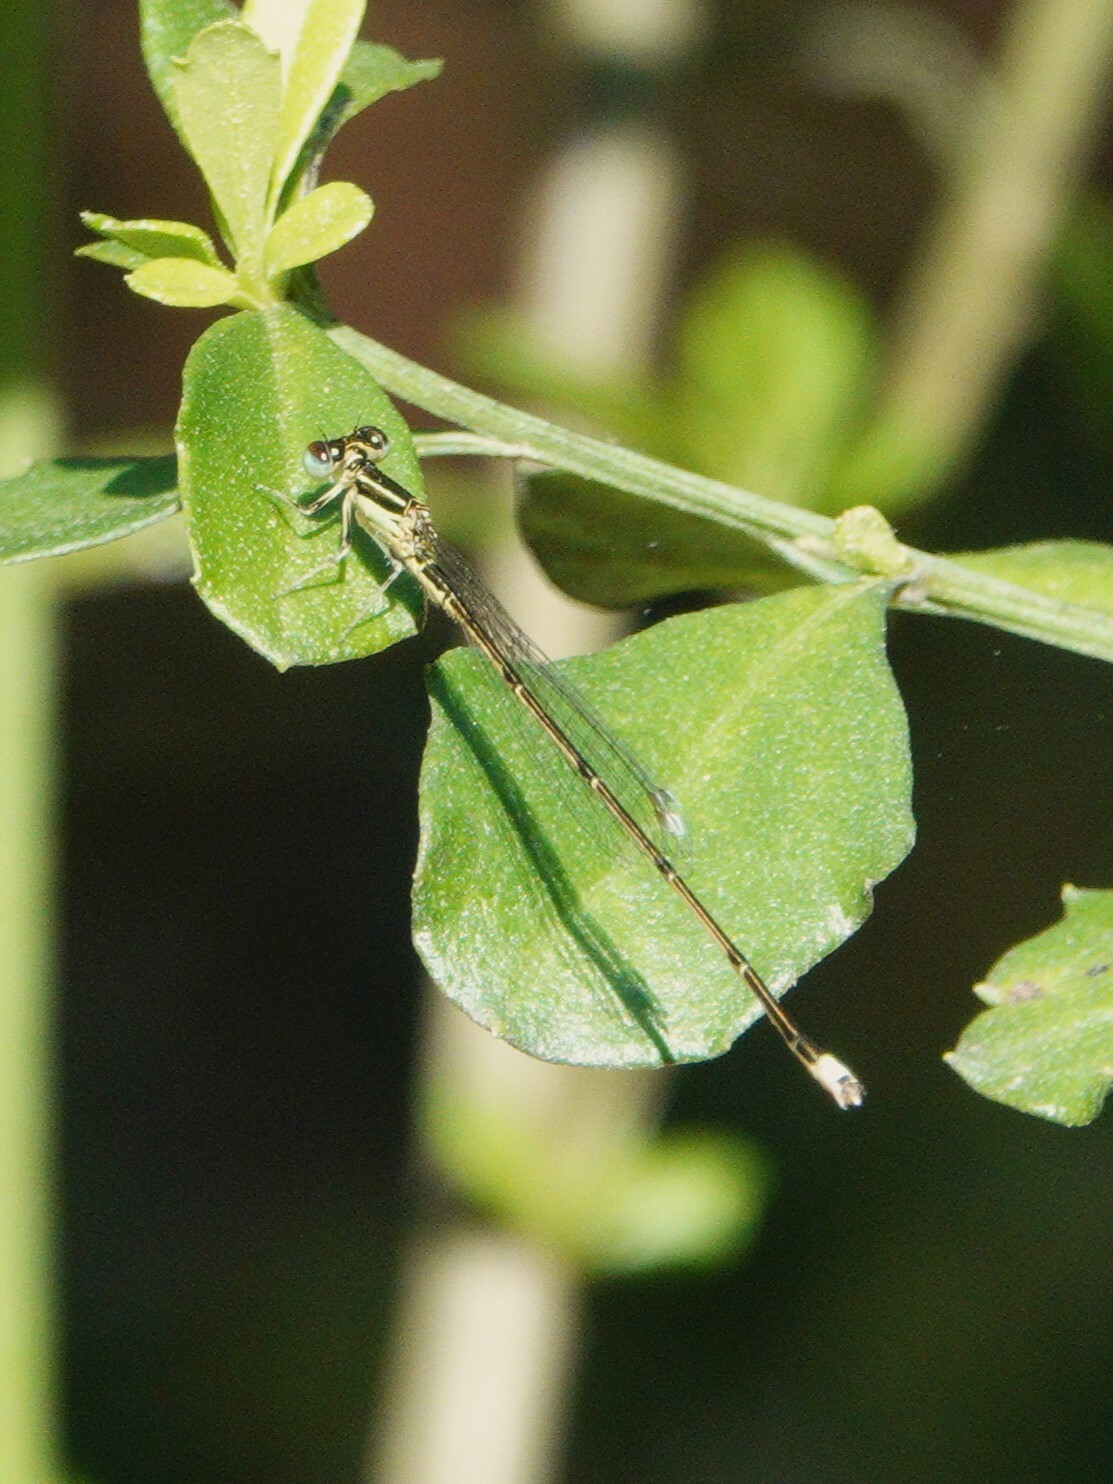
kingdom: Animalia
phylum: Arthropoda
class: Insecta
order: Odonata
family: Coenagrionidae
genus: Ischnura
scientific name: Ischnura prognata
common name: Furtive forktail
